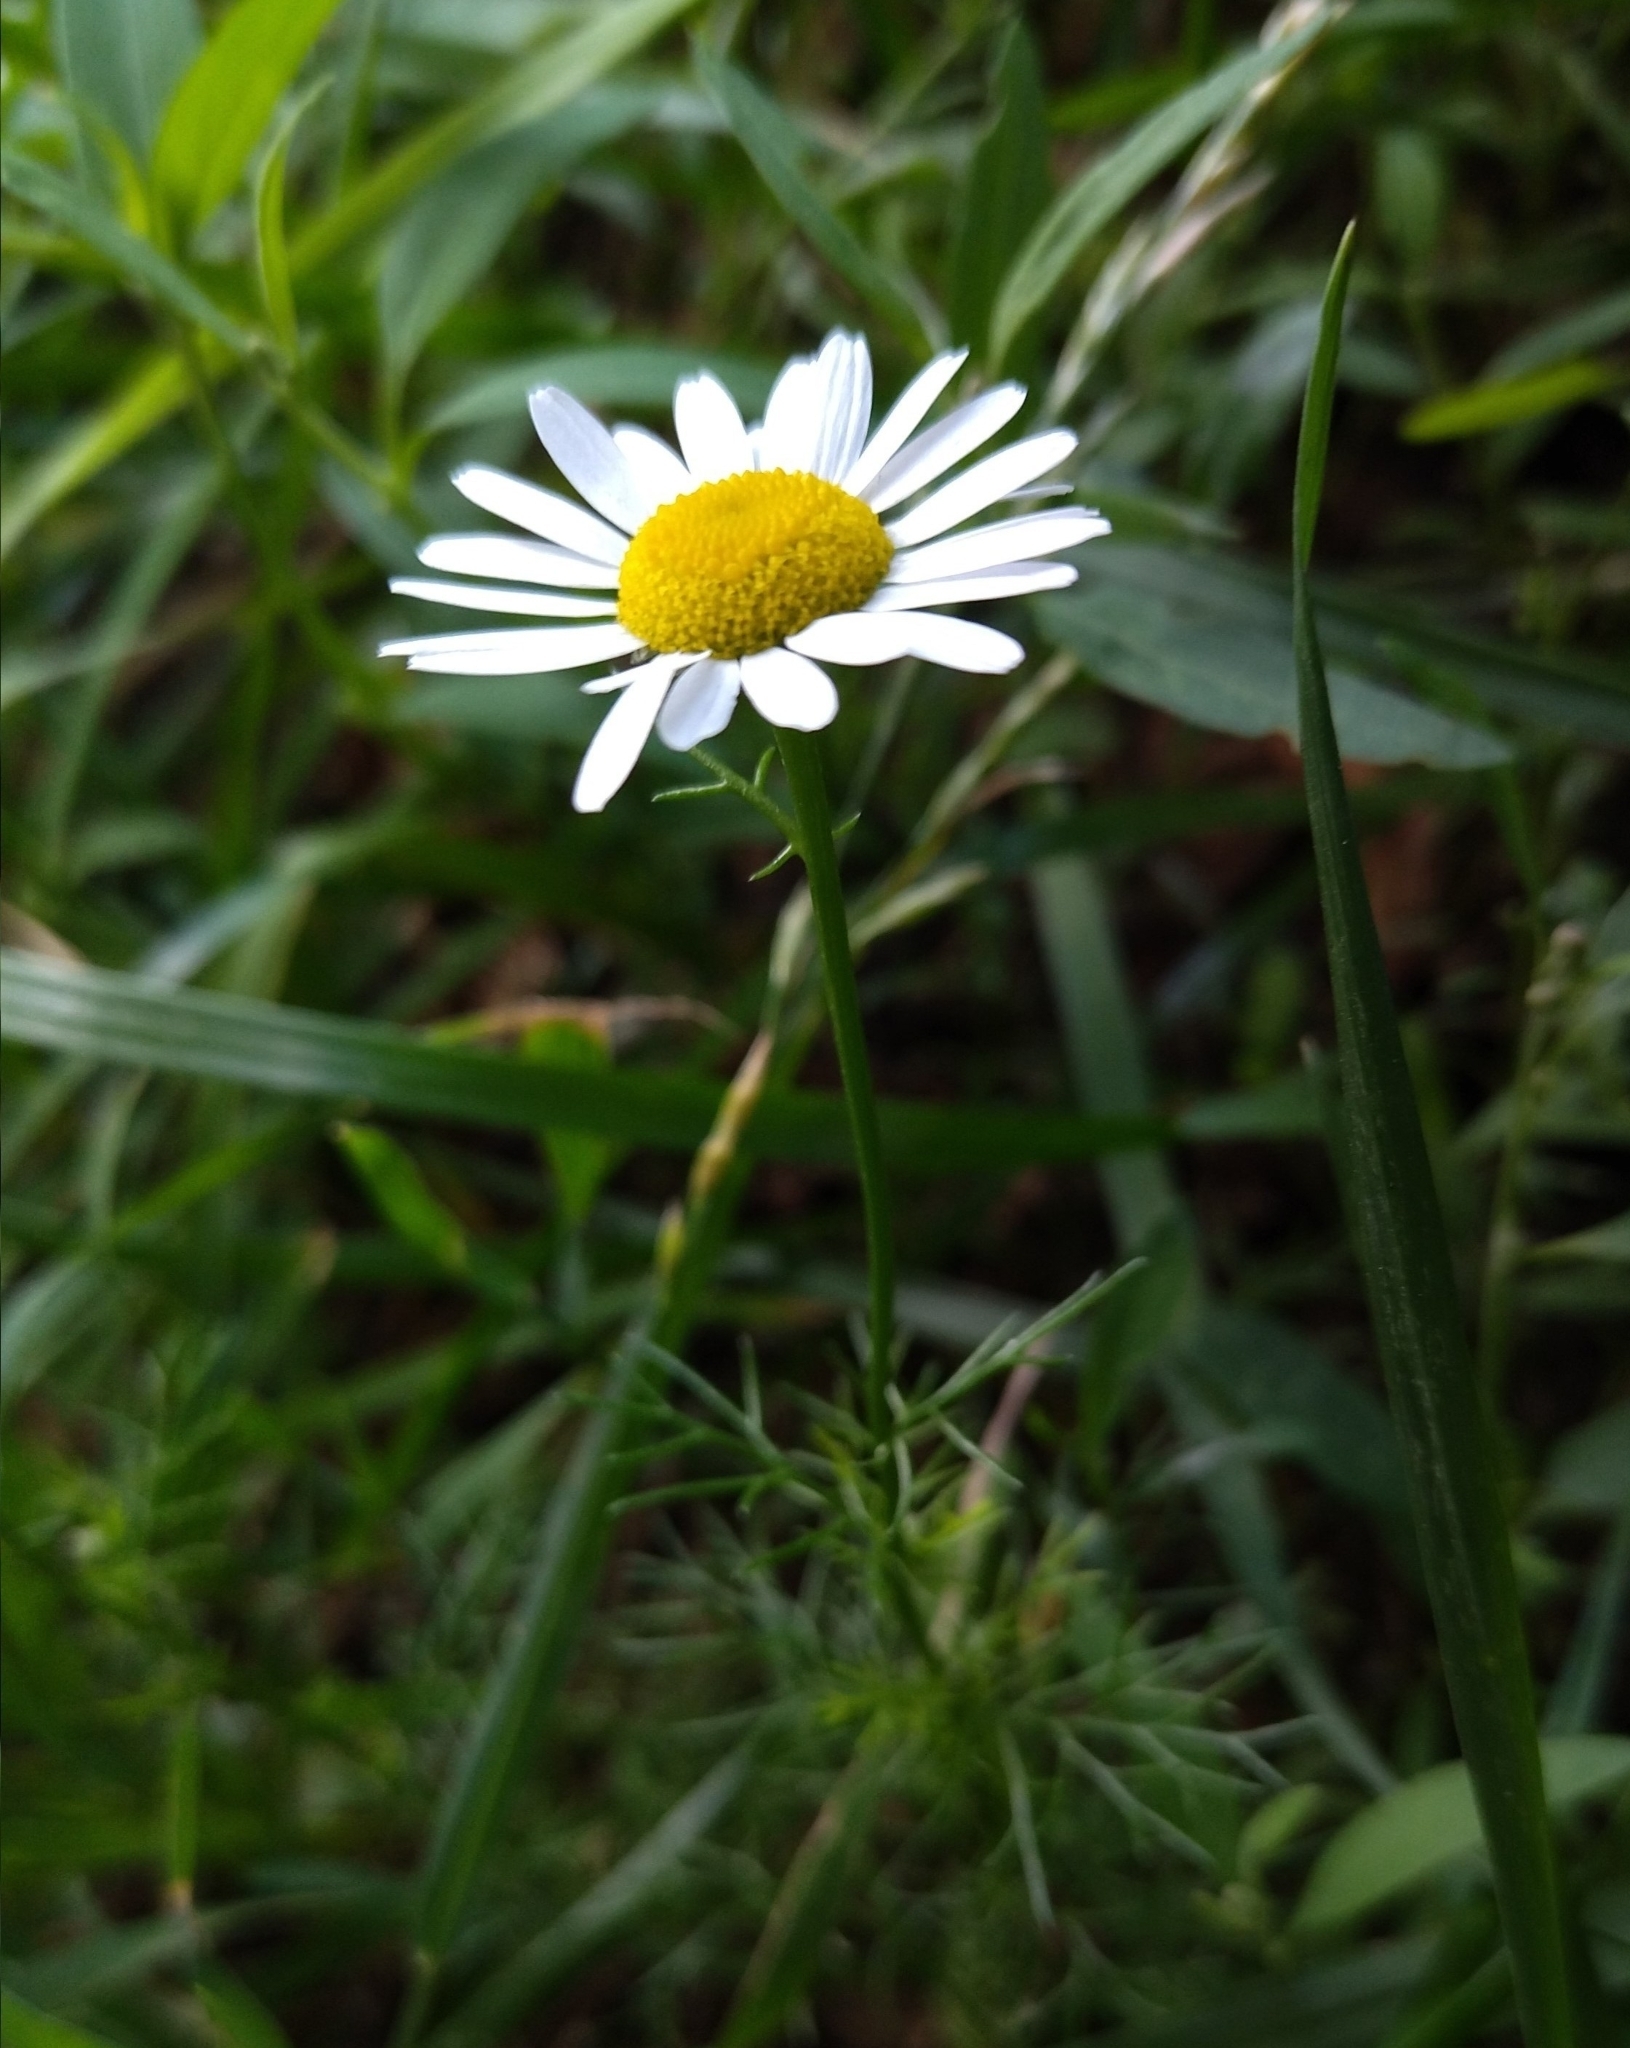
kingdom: Plantae
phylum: Tracheophyta
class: Magnoliopsida
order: Asterales
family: Asteraceae
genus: Tripleurospermum
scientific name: Tripleurospermum inodorum
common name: Scentless mayweed
